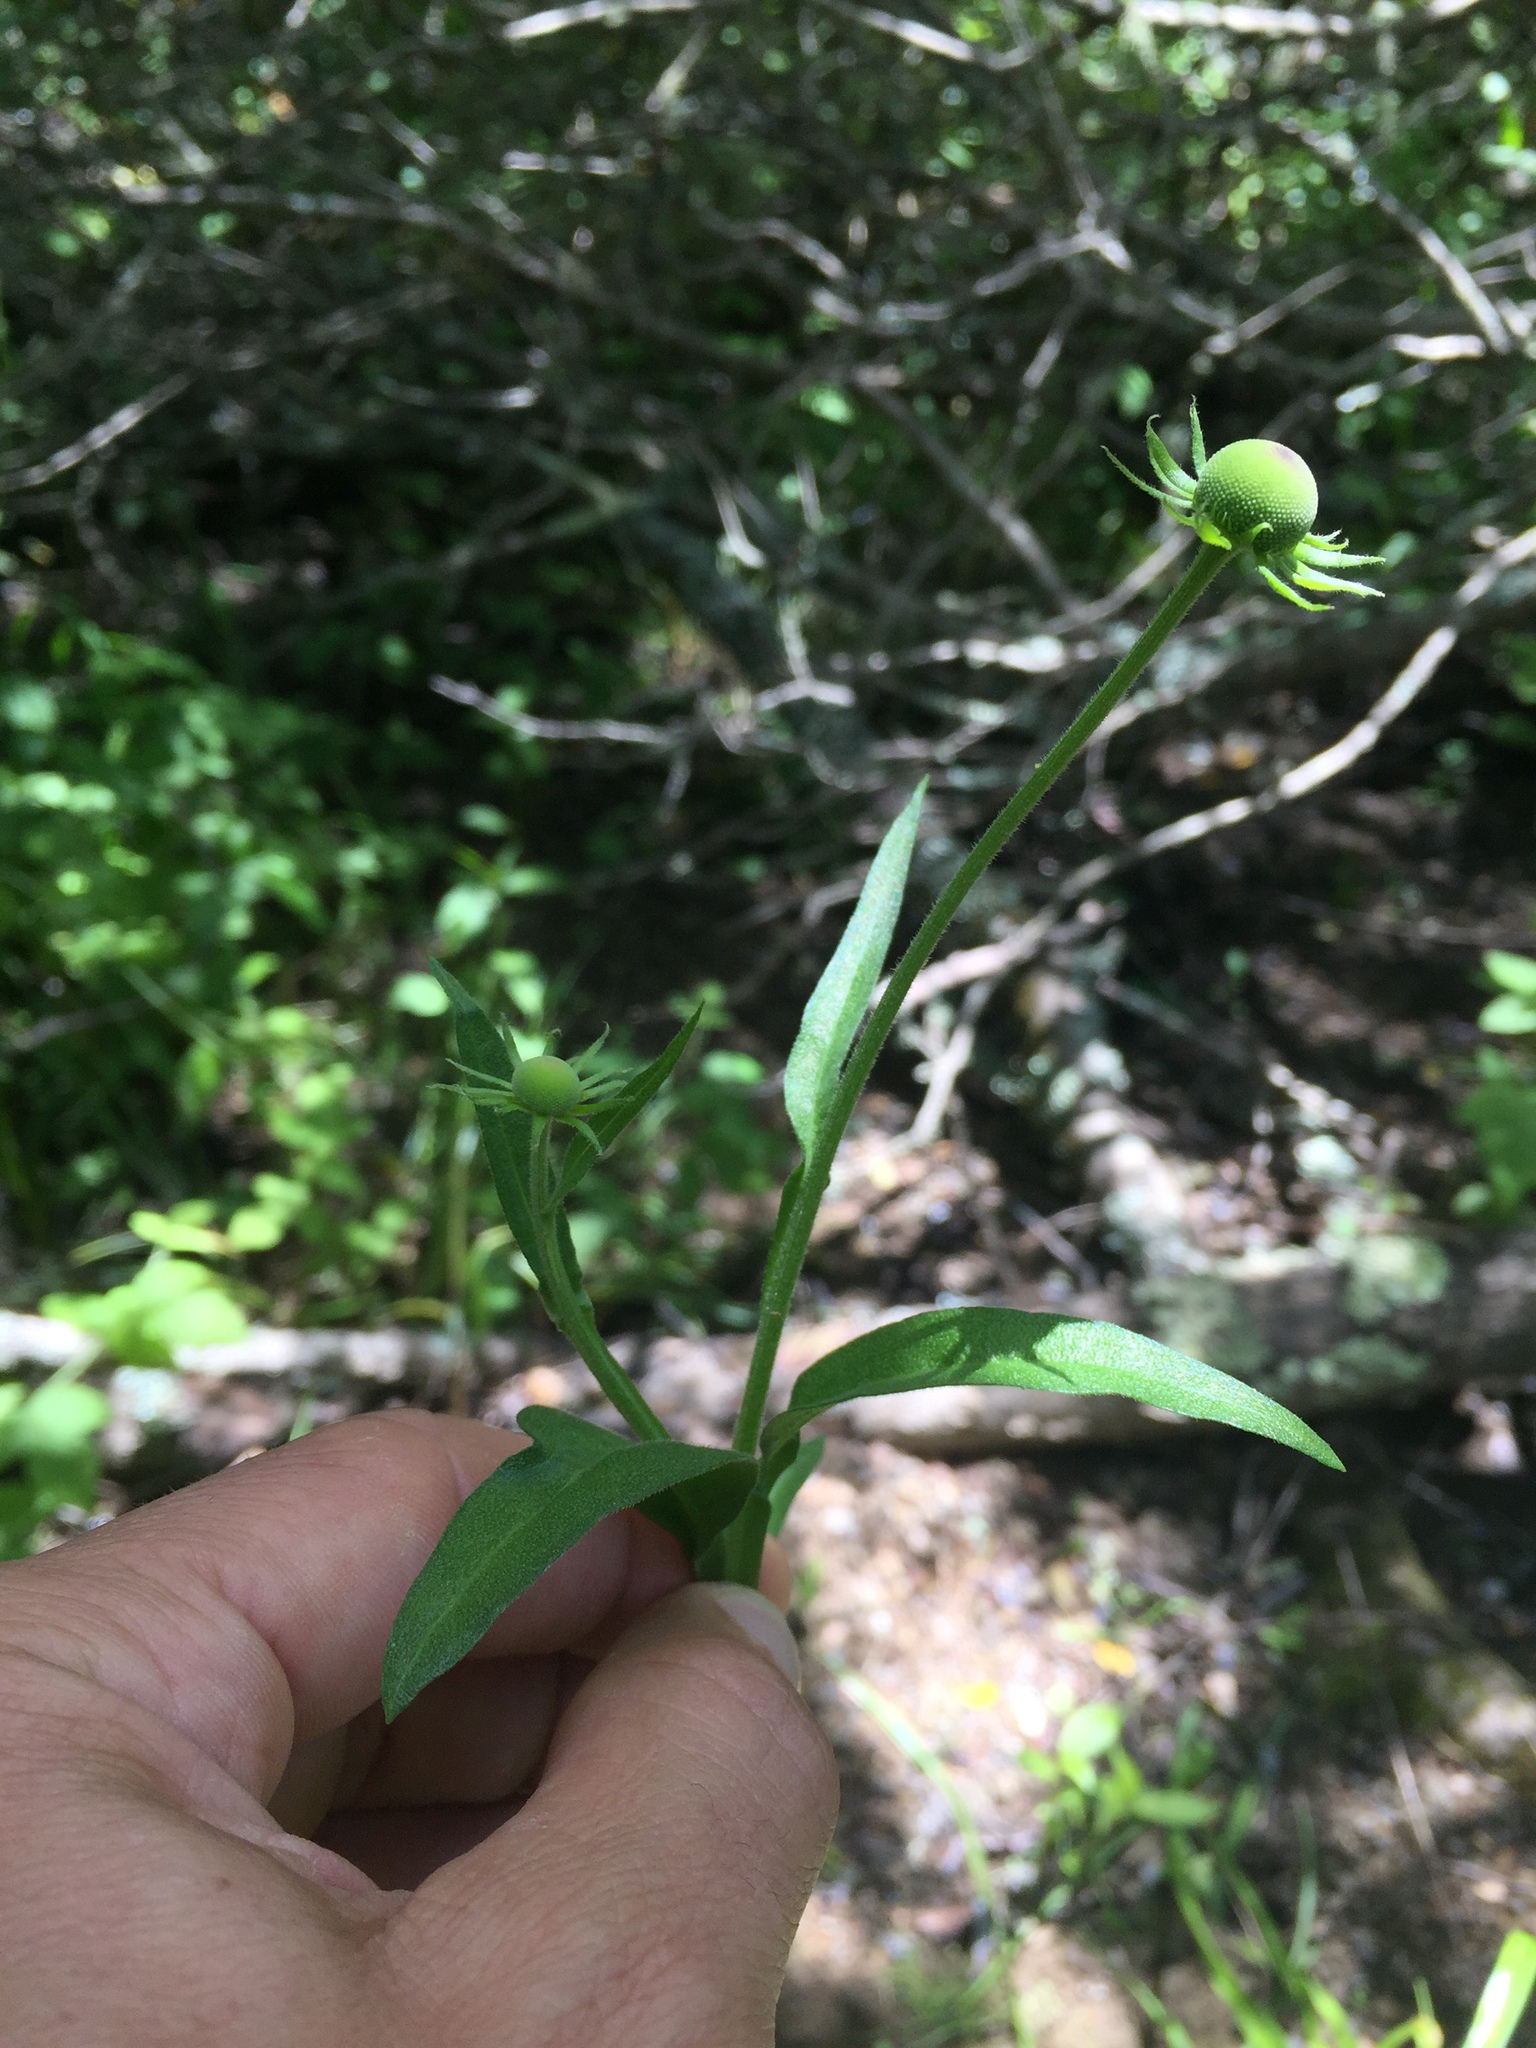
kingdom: Plantae
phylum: Tracheophyta
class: Magnoliopsida
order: Asterales
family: Asteraceae
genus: Helenium
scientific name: Helenium puberulum
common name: Sneezewort
